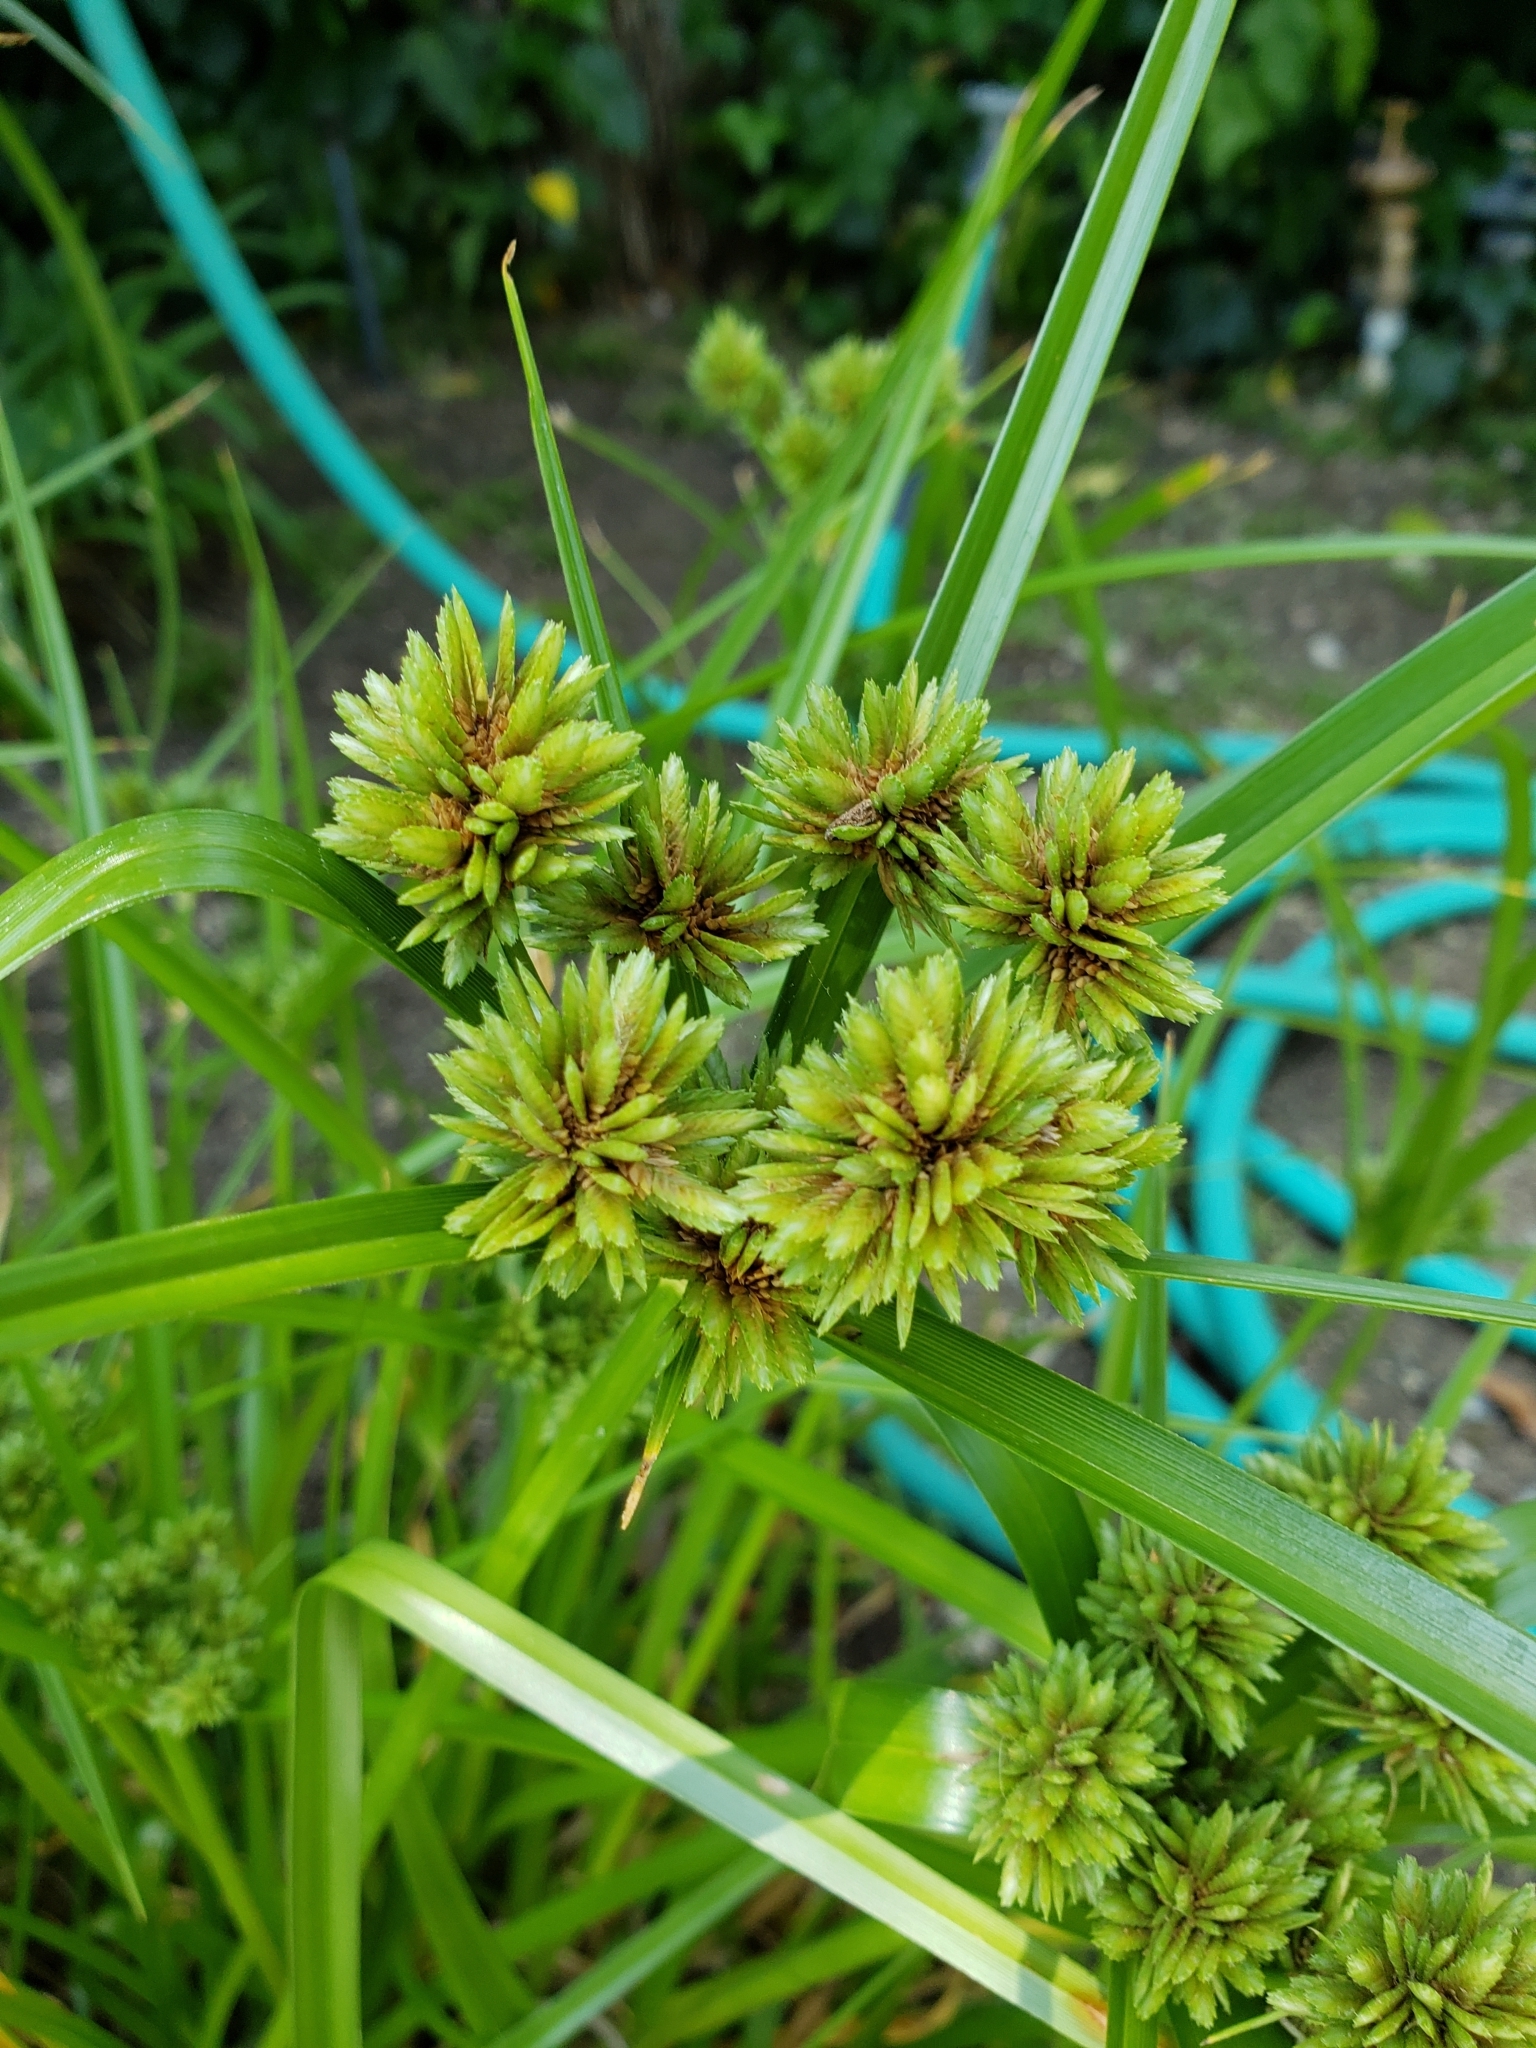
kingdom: Plantae
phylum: Tracheophyta
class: Liliopsida
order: Poales
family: Cyperaceae
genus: Cyperus
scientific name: Cyperus eragrostis
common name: Tall flatsedge
